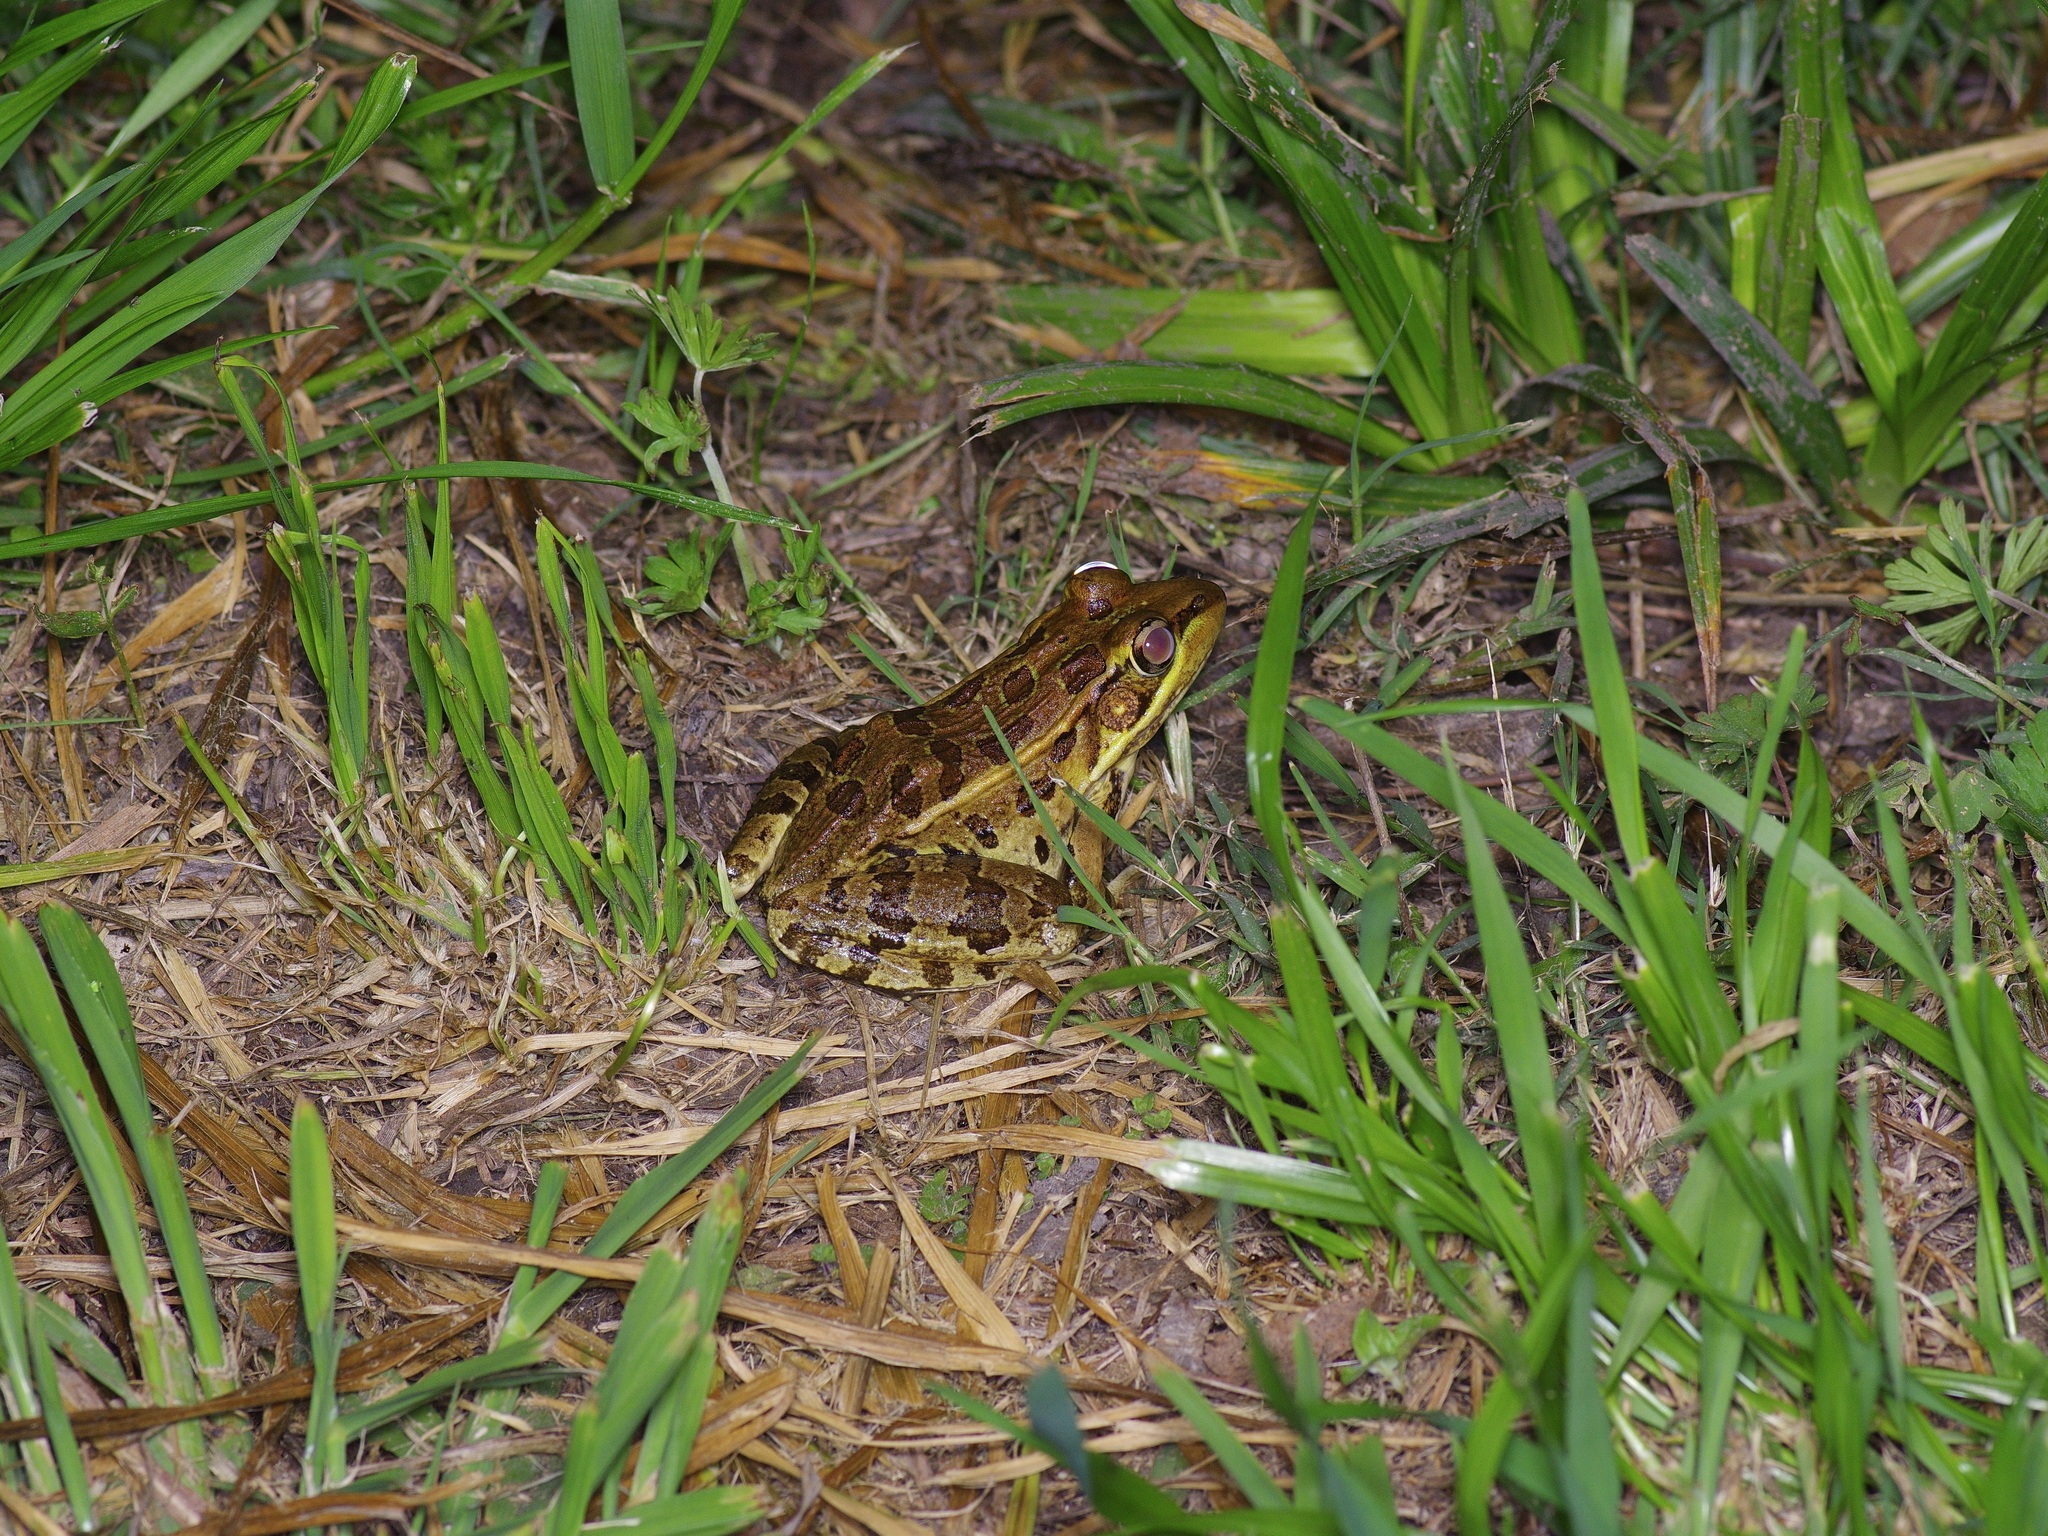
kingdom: Animalia
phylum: Chordata
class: Amphibia
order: Anura
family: Ranidae
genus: Lithobates
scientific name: Lithobates berlandieri
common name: Rio grande leopard frog
